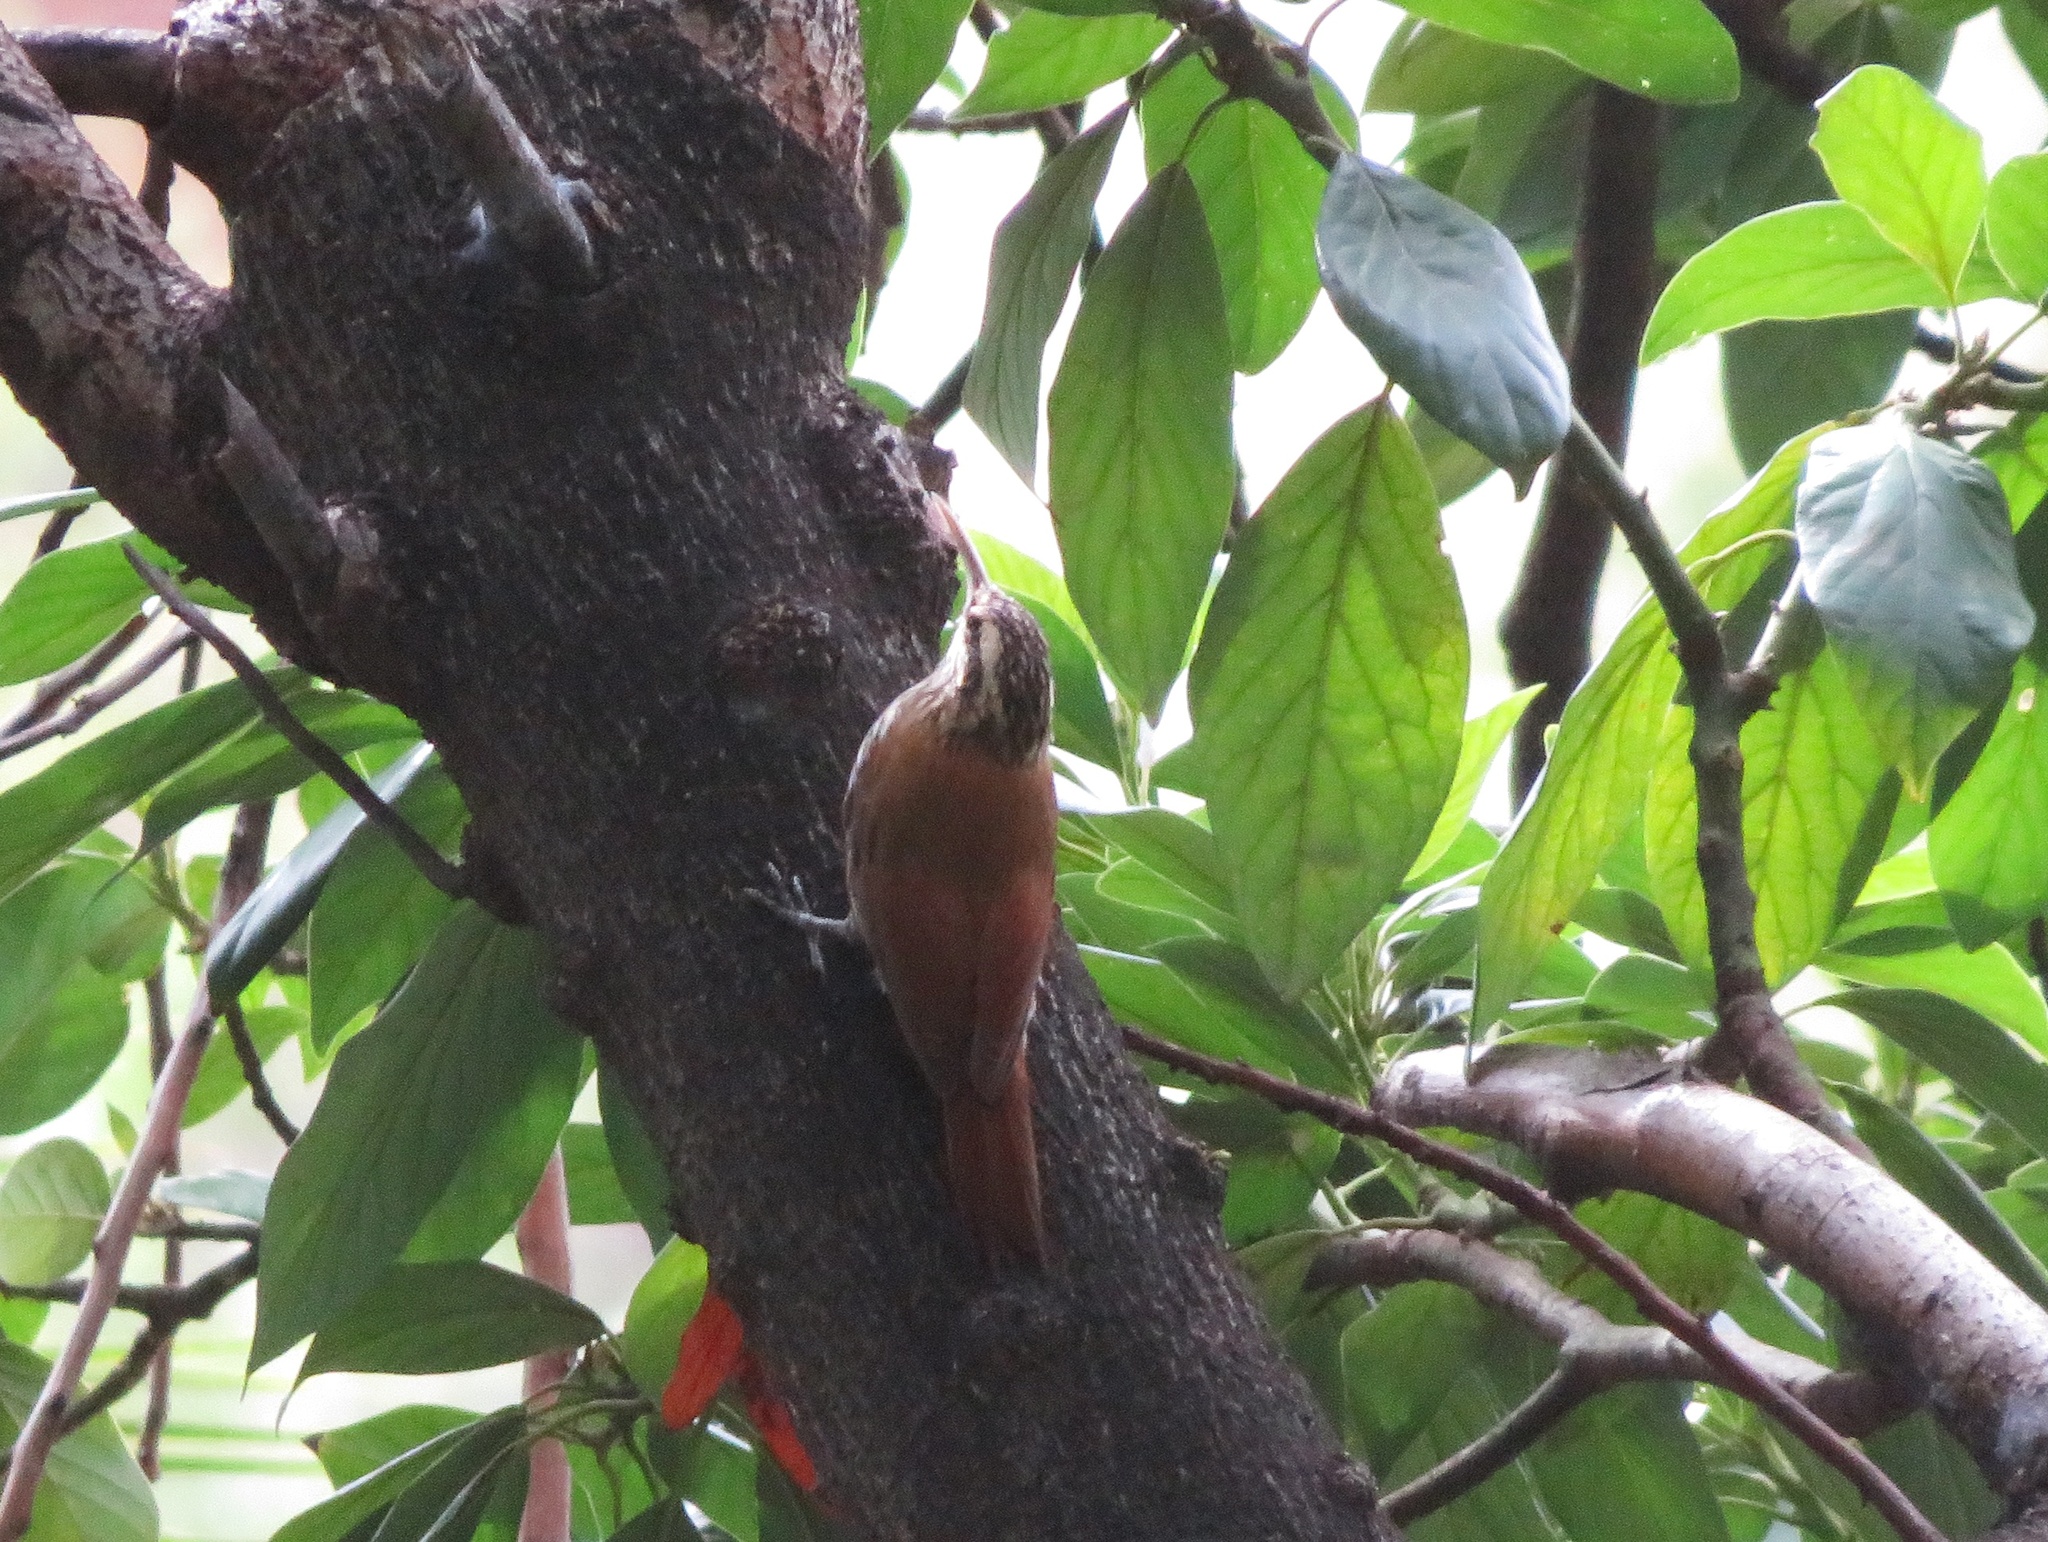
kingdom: Animalia
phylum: Chordata
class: Aves
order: Passeriformes
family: Furnariidae
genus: Lepidocolaptes
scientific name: Lepidocolaptes angustirostris
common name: Narrow-billed woodcreeper
